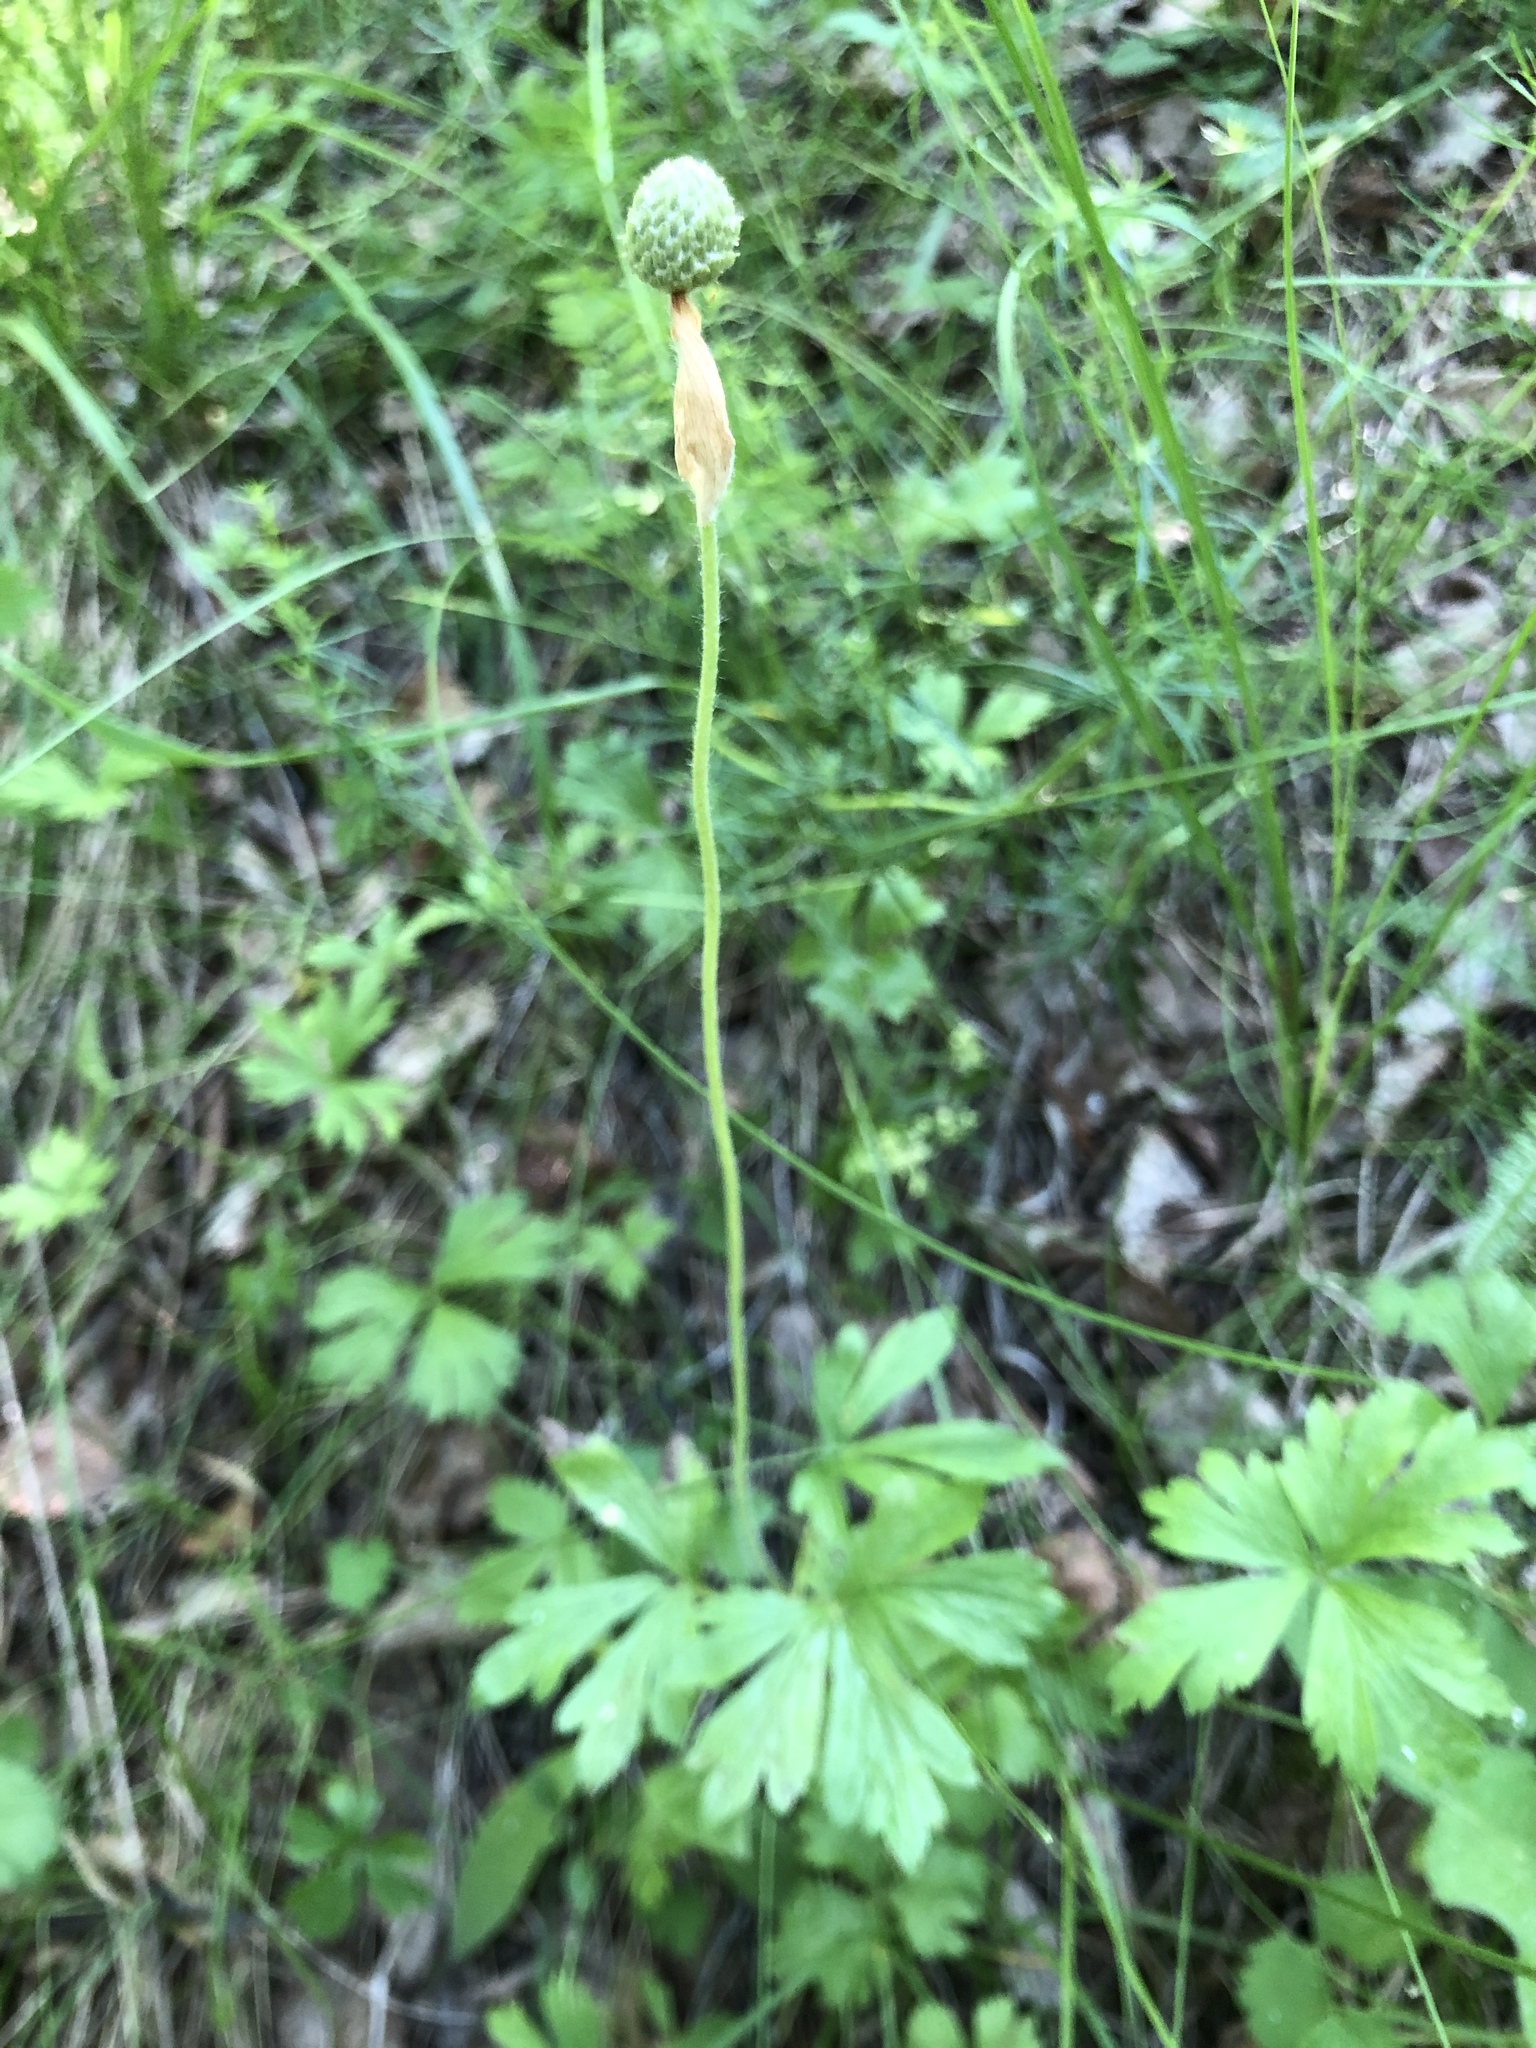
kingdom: Plantae
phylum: Tracheophyta
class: Magnoliopsida
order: Ranunculales
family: Ranunculaceae
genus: Anemone
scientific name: Anemone sylvestris
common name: Snowdrop anemone
